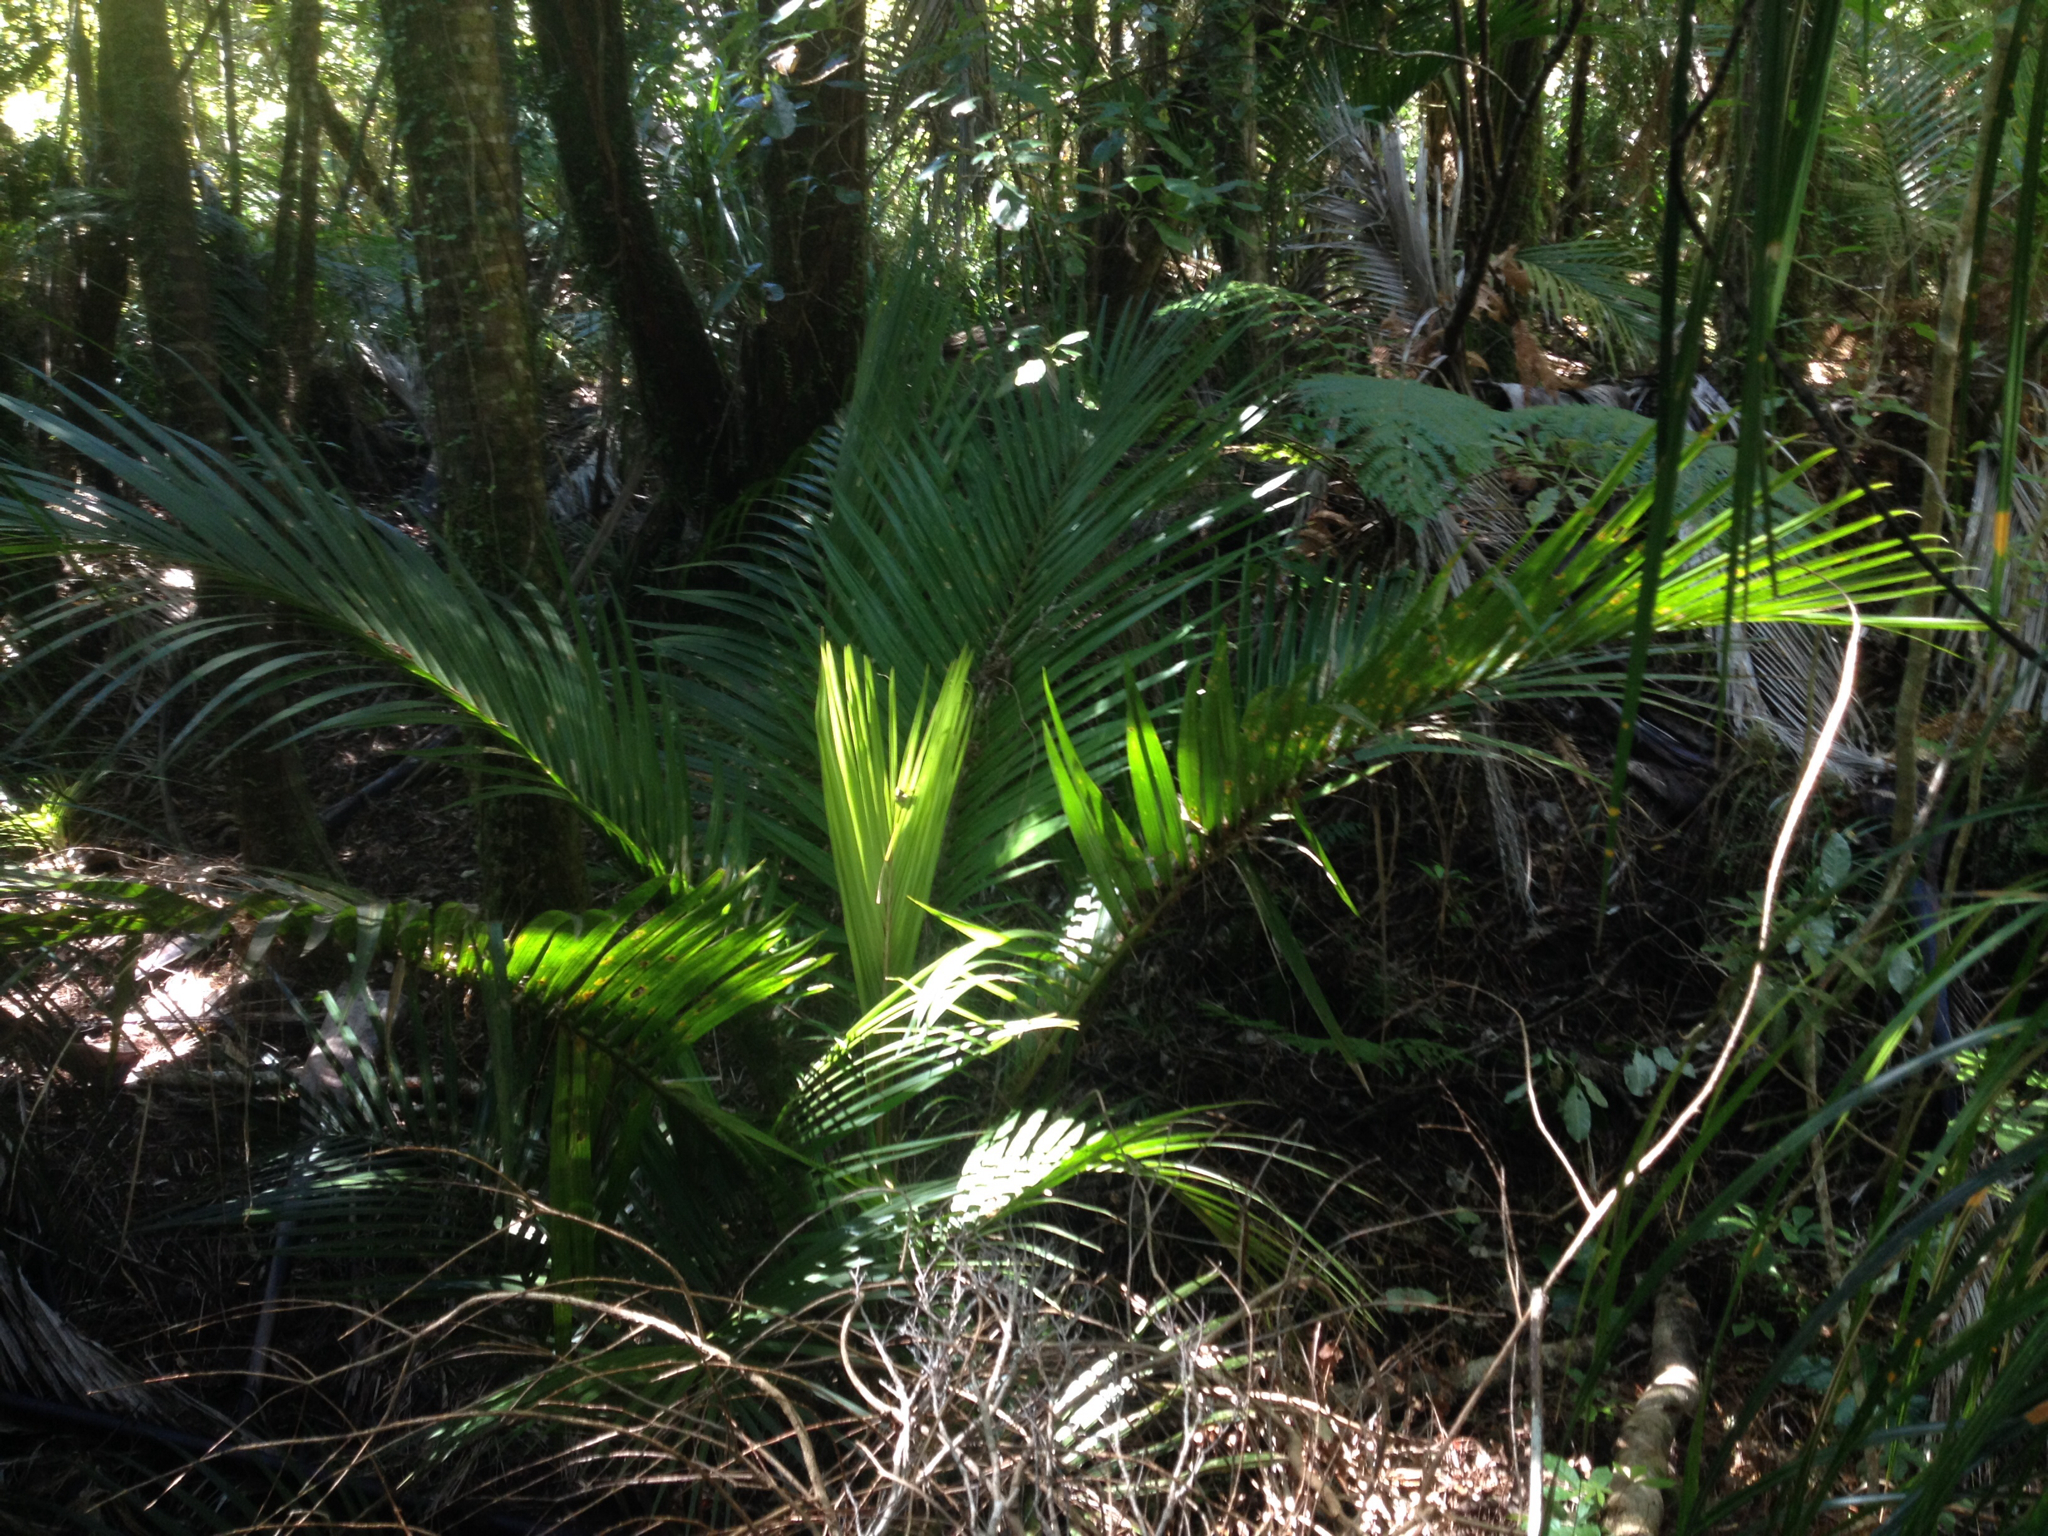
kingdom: Plantae
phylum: Tracheophyta
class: Liliopsida
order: Arecales
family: Arecaceae
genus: Rhopalostylis
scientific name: Rhopalostylis sapida
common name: Feather-duster palm
